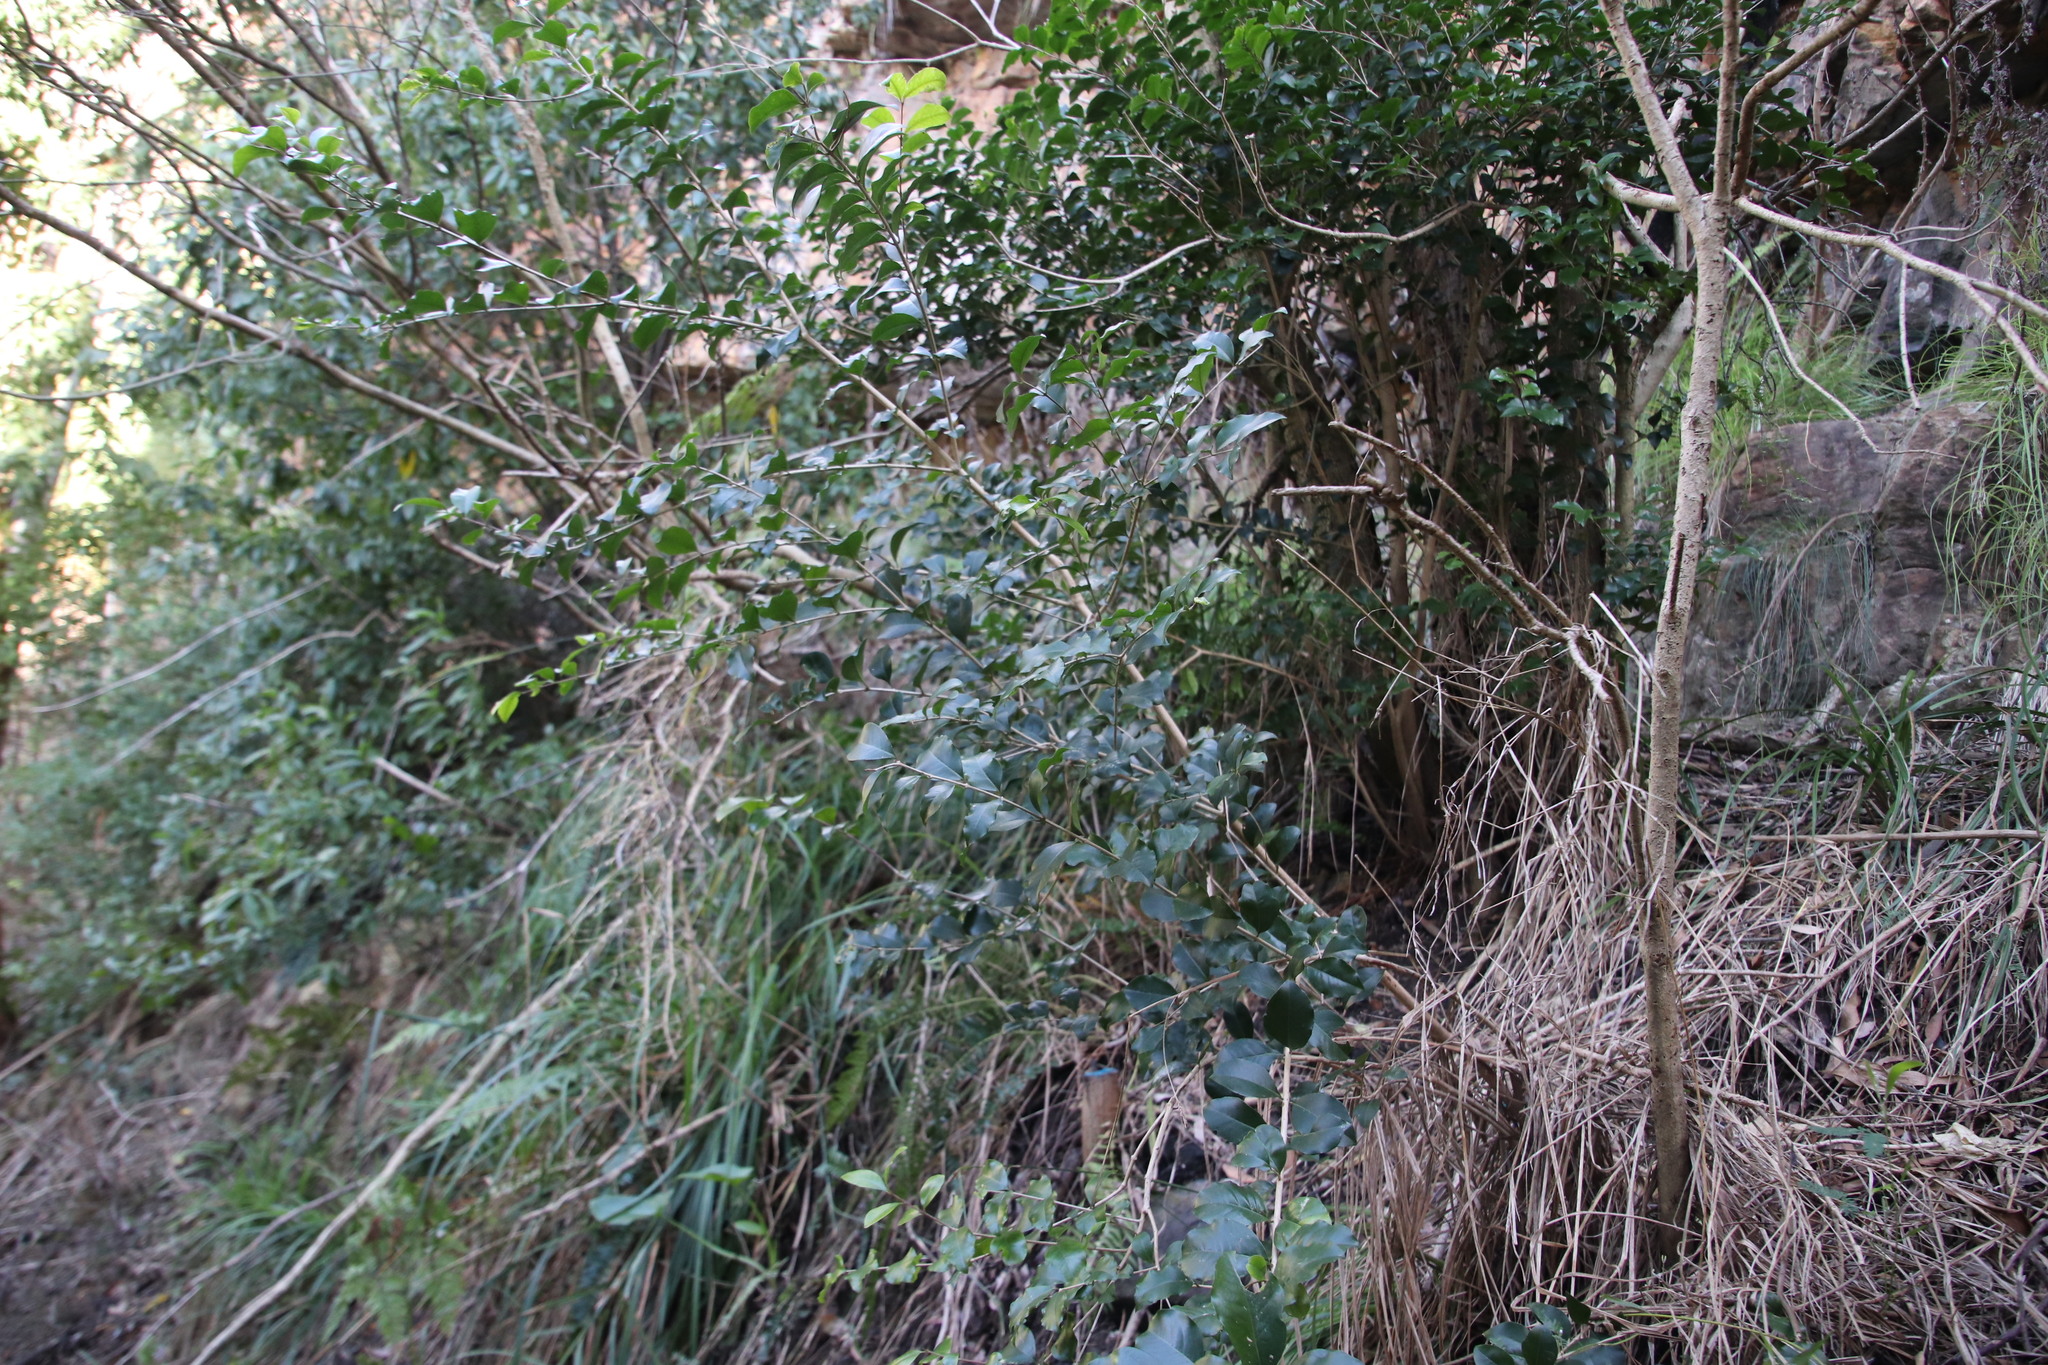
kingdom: Plantae
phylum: Tracheophyta
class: Magnoliopsida
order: Myrtales
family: Penaeaceae
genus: Olinia
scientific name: Olinia ventosa
